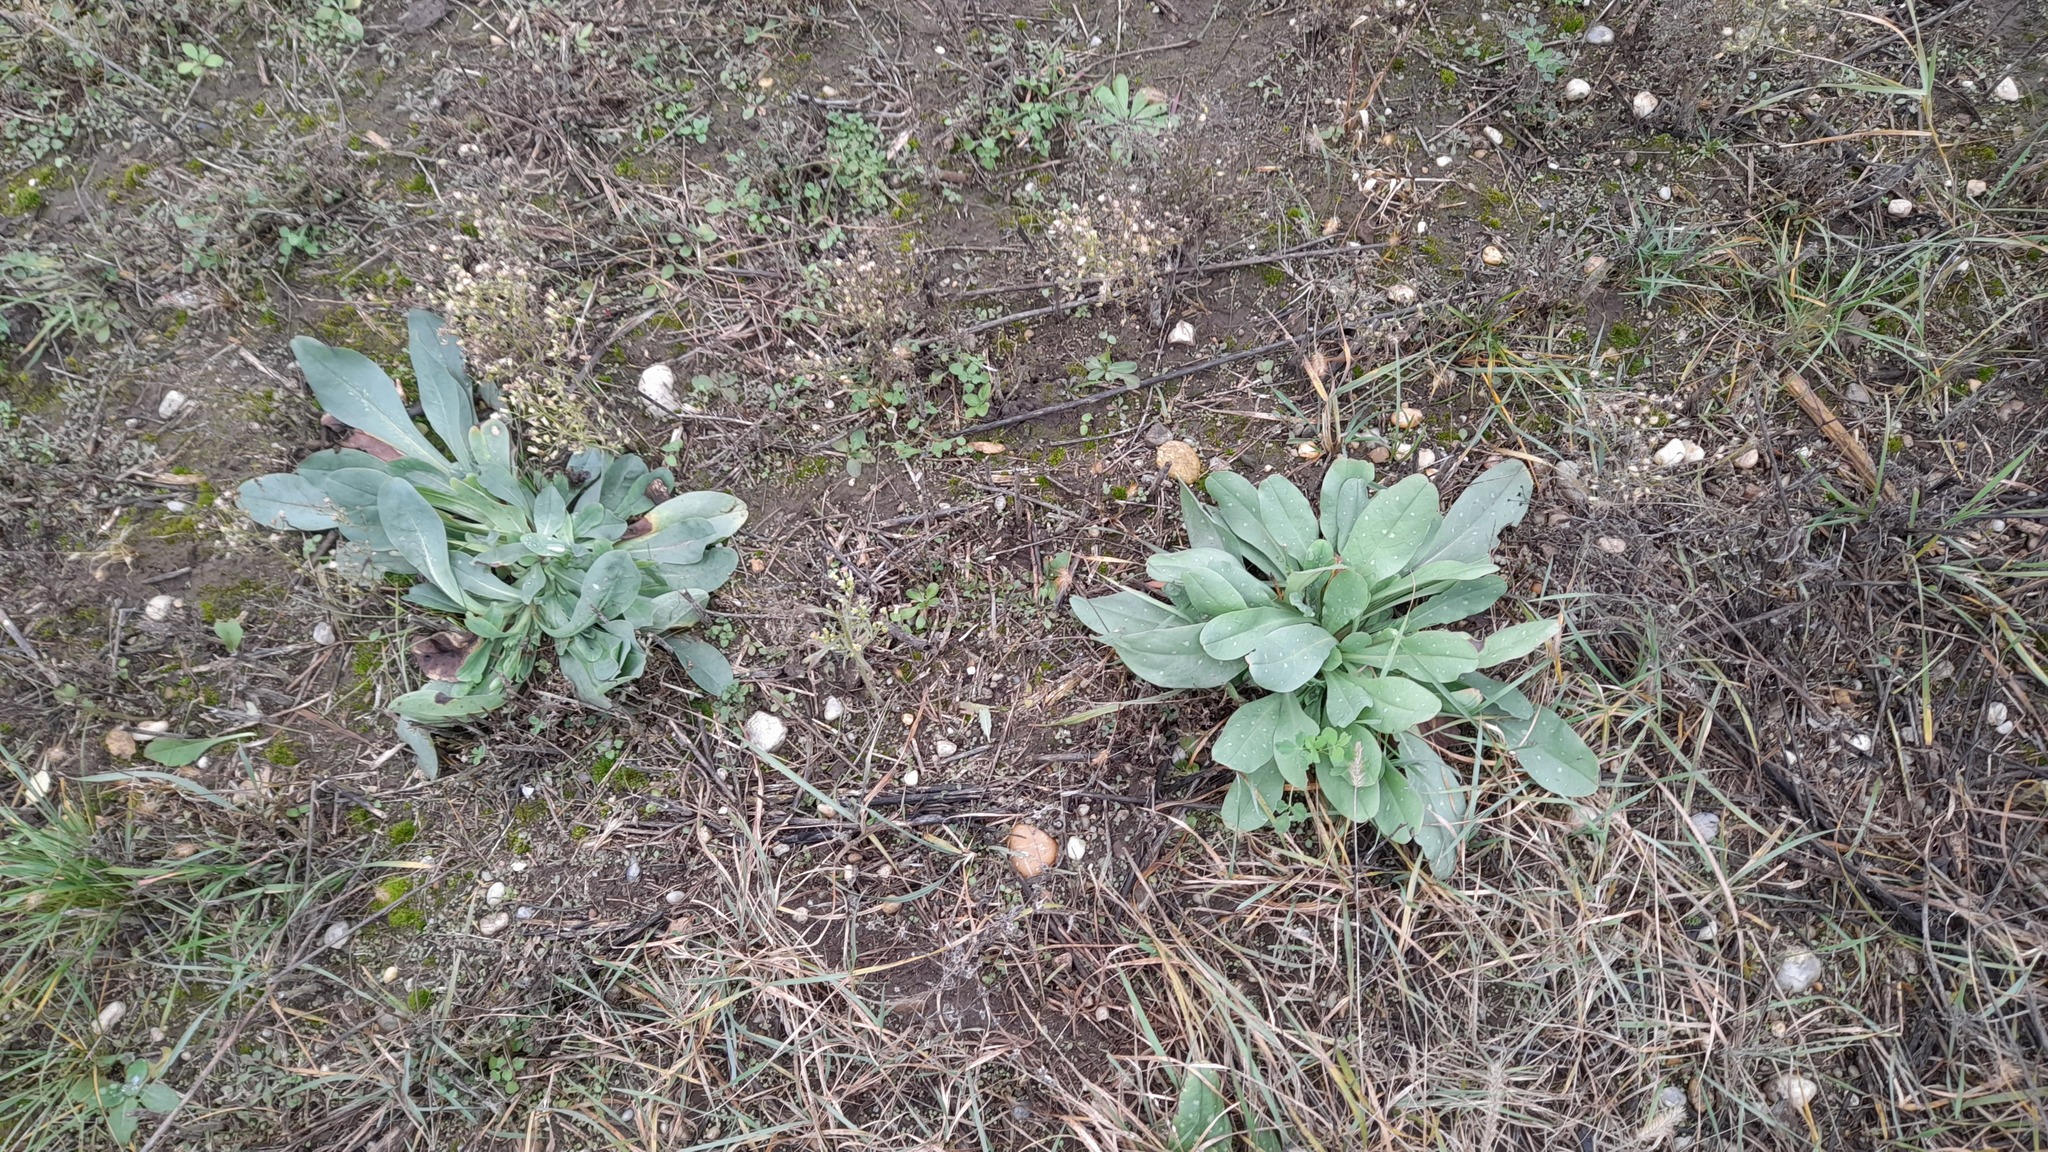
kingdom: Plantae
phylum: Tracheophyta
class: Magnoliopsida
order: Boraginales
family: Boraginaceae
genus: Cerinthe
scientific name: Cerinthe minor
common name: Lesser honeywort
